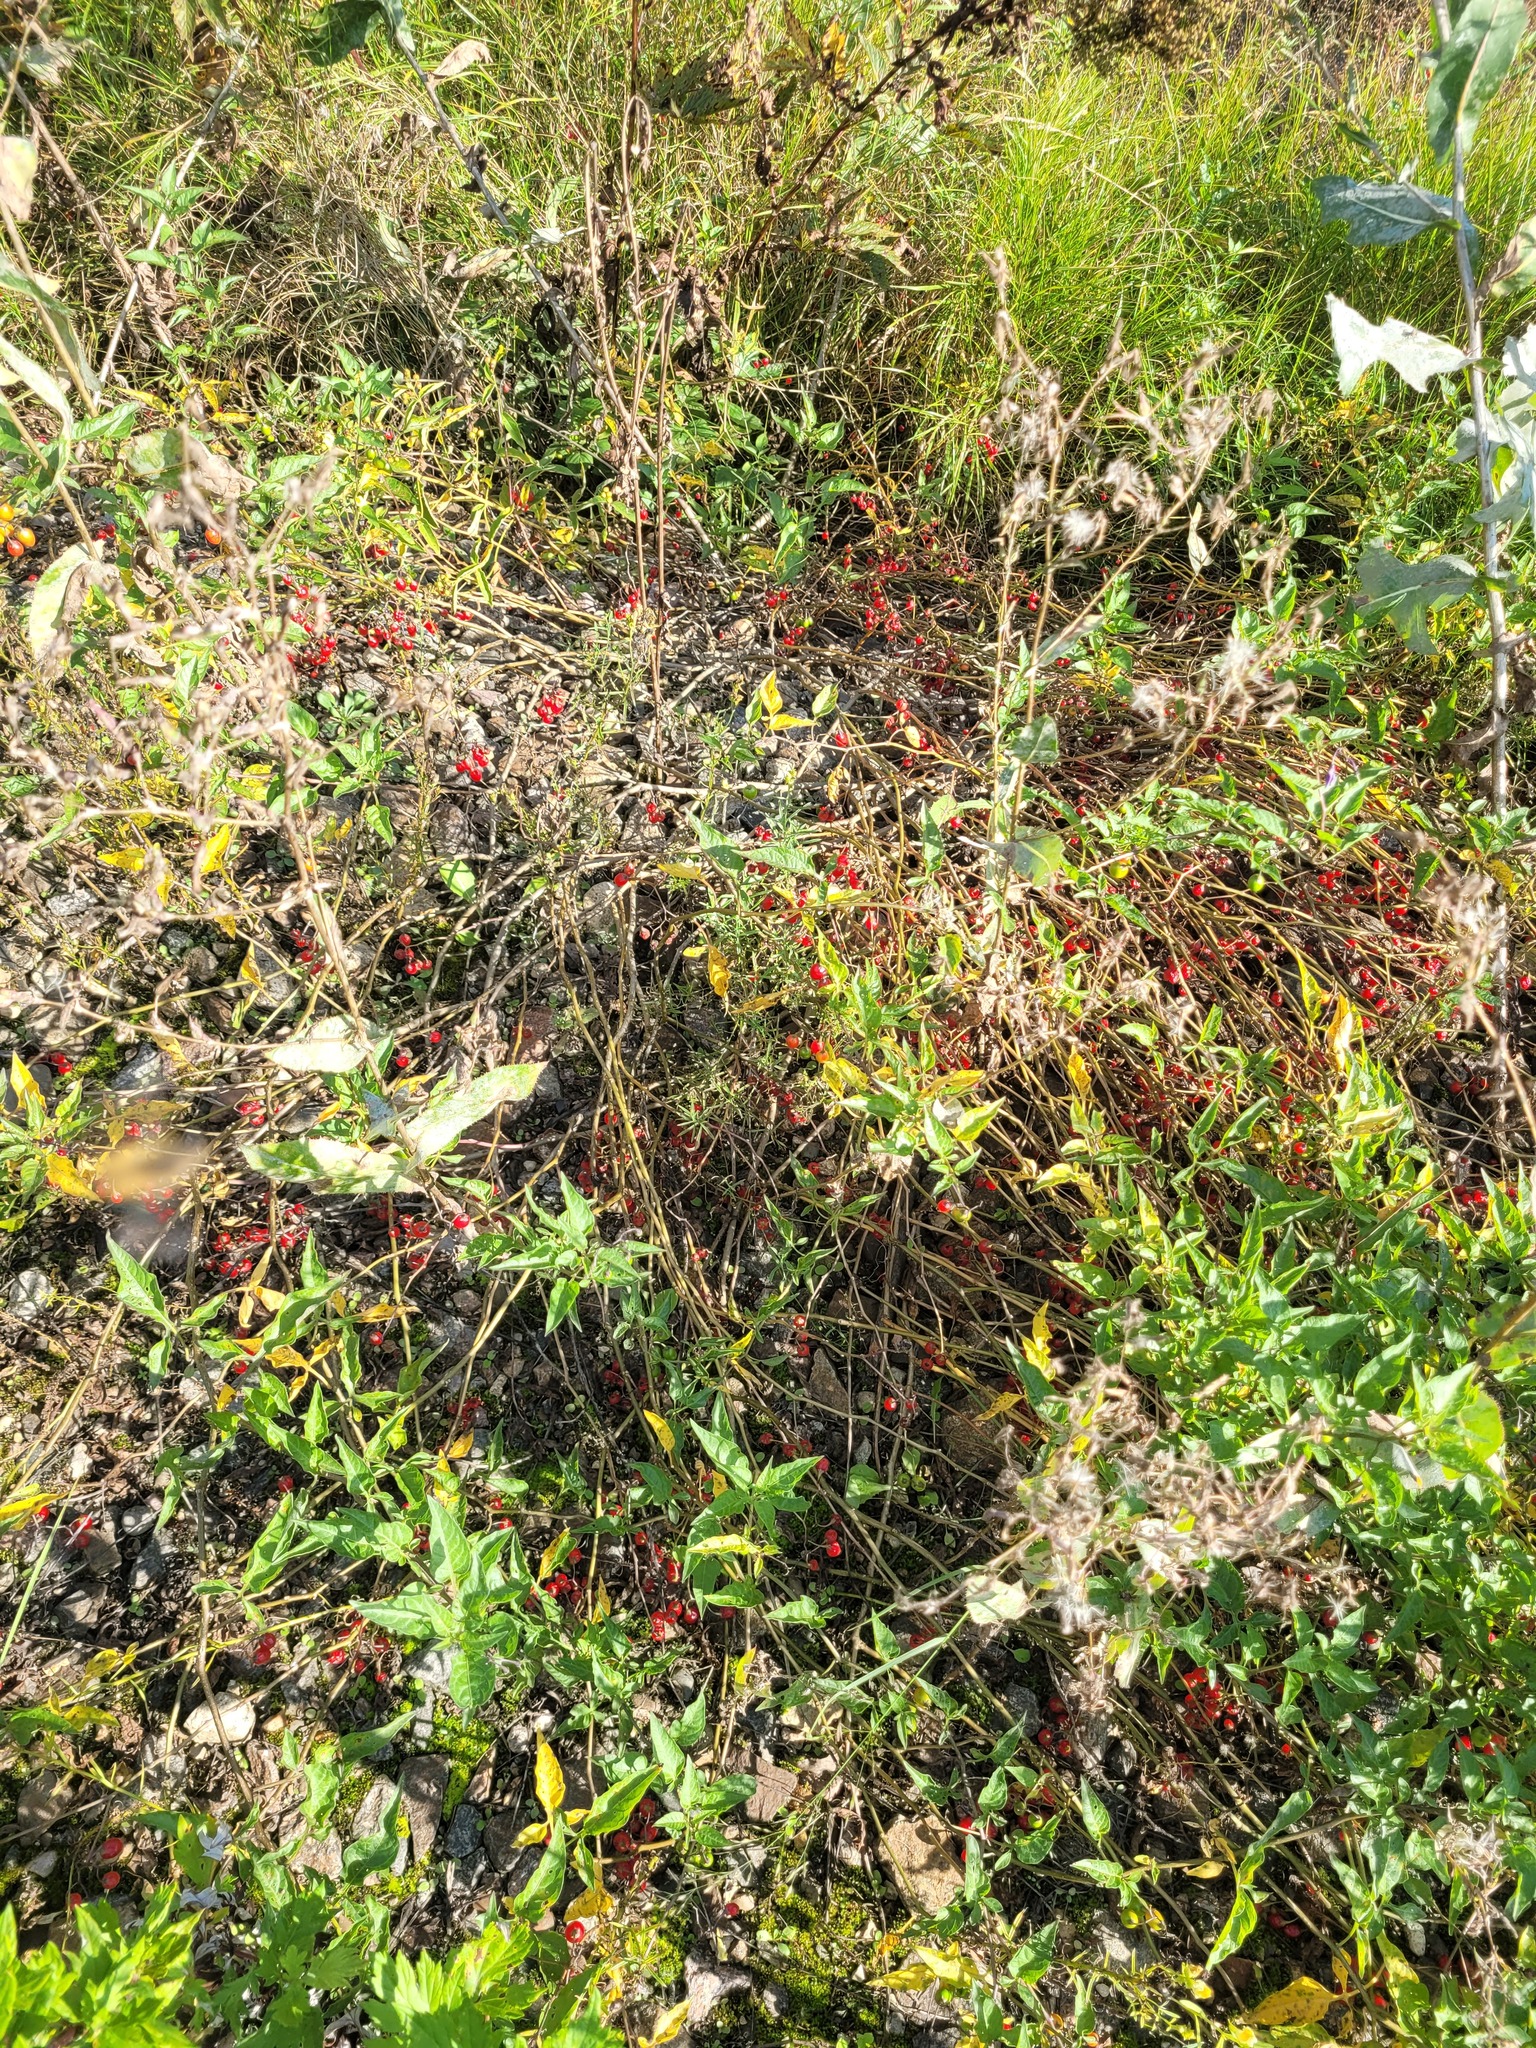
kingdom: Plantae
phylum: Tracheophyta
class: Magnoliopsida
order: Solanales
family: Solanaceae
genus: Solanum
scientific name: Solanum dulcamara
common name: Climbing nightshade
